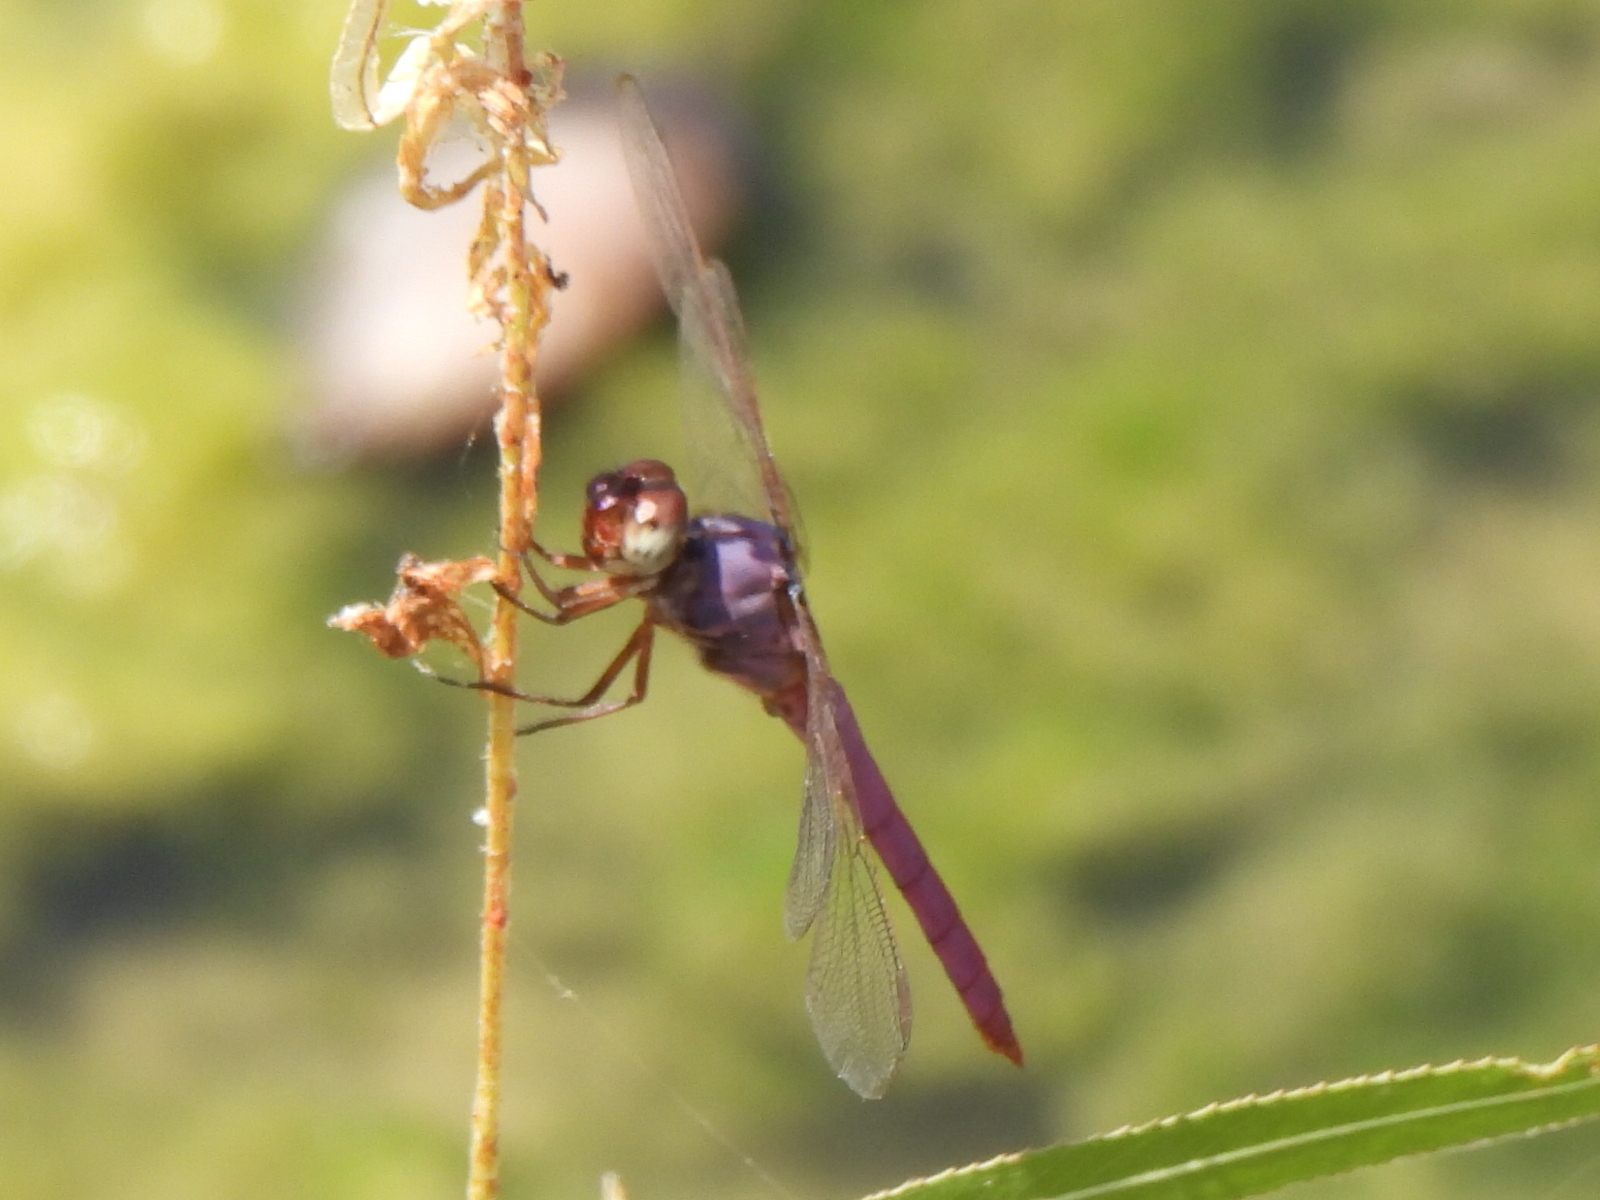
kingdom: Animalia
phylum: Arthropoda
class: Insecta
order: Odonata
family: Libellulidae
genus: Orthemis
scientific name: Orthemis ferruginea
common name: Roseate skimmer
